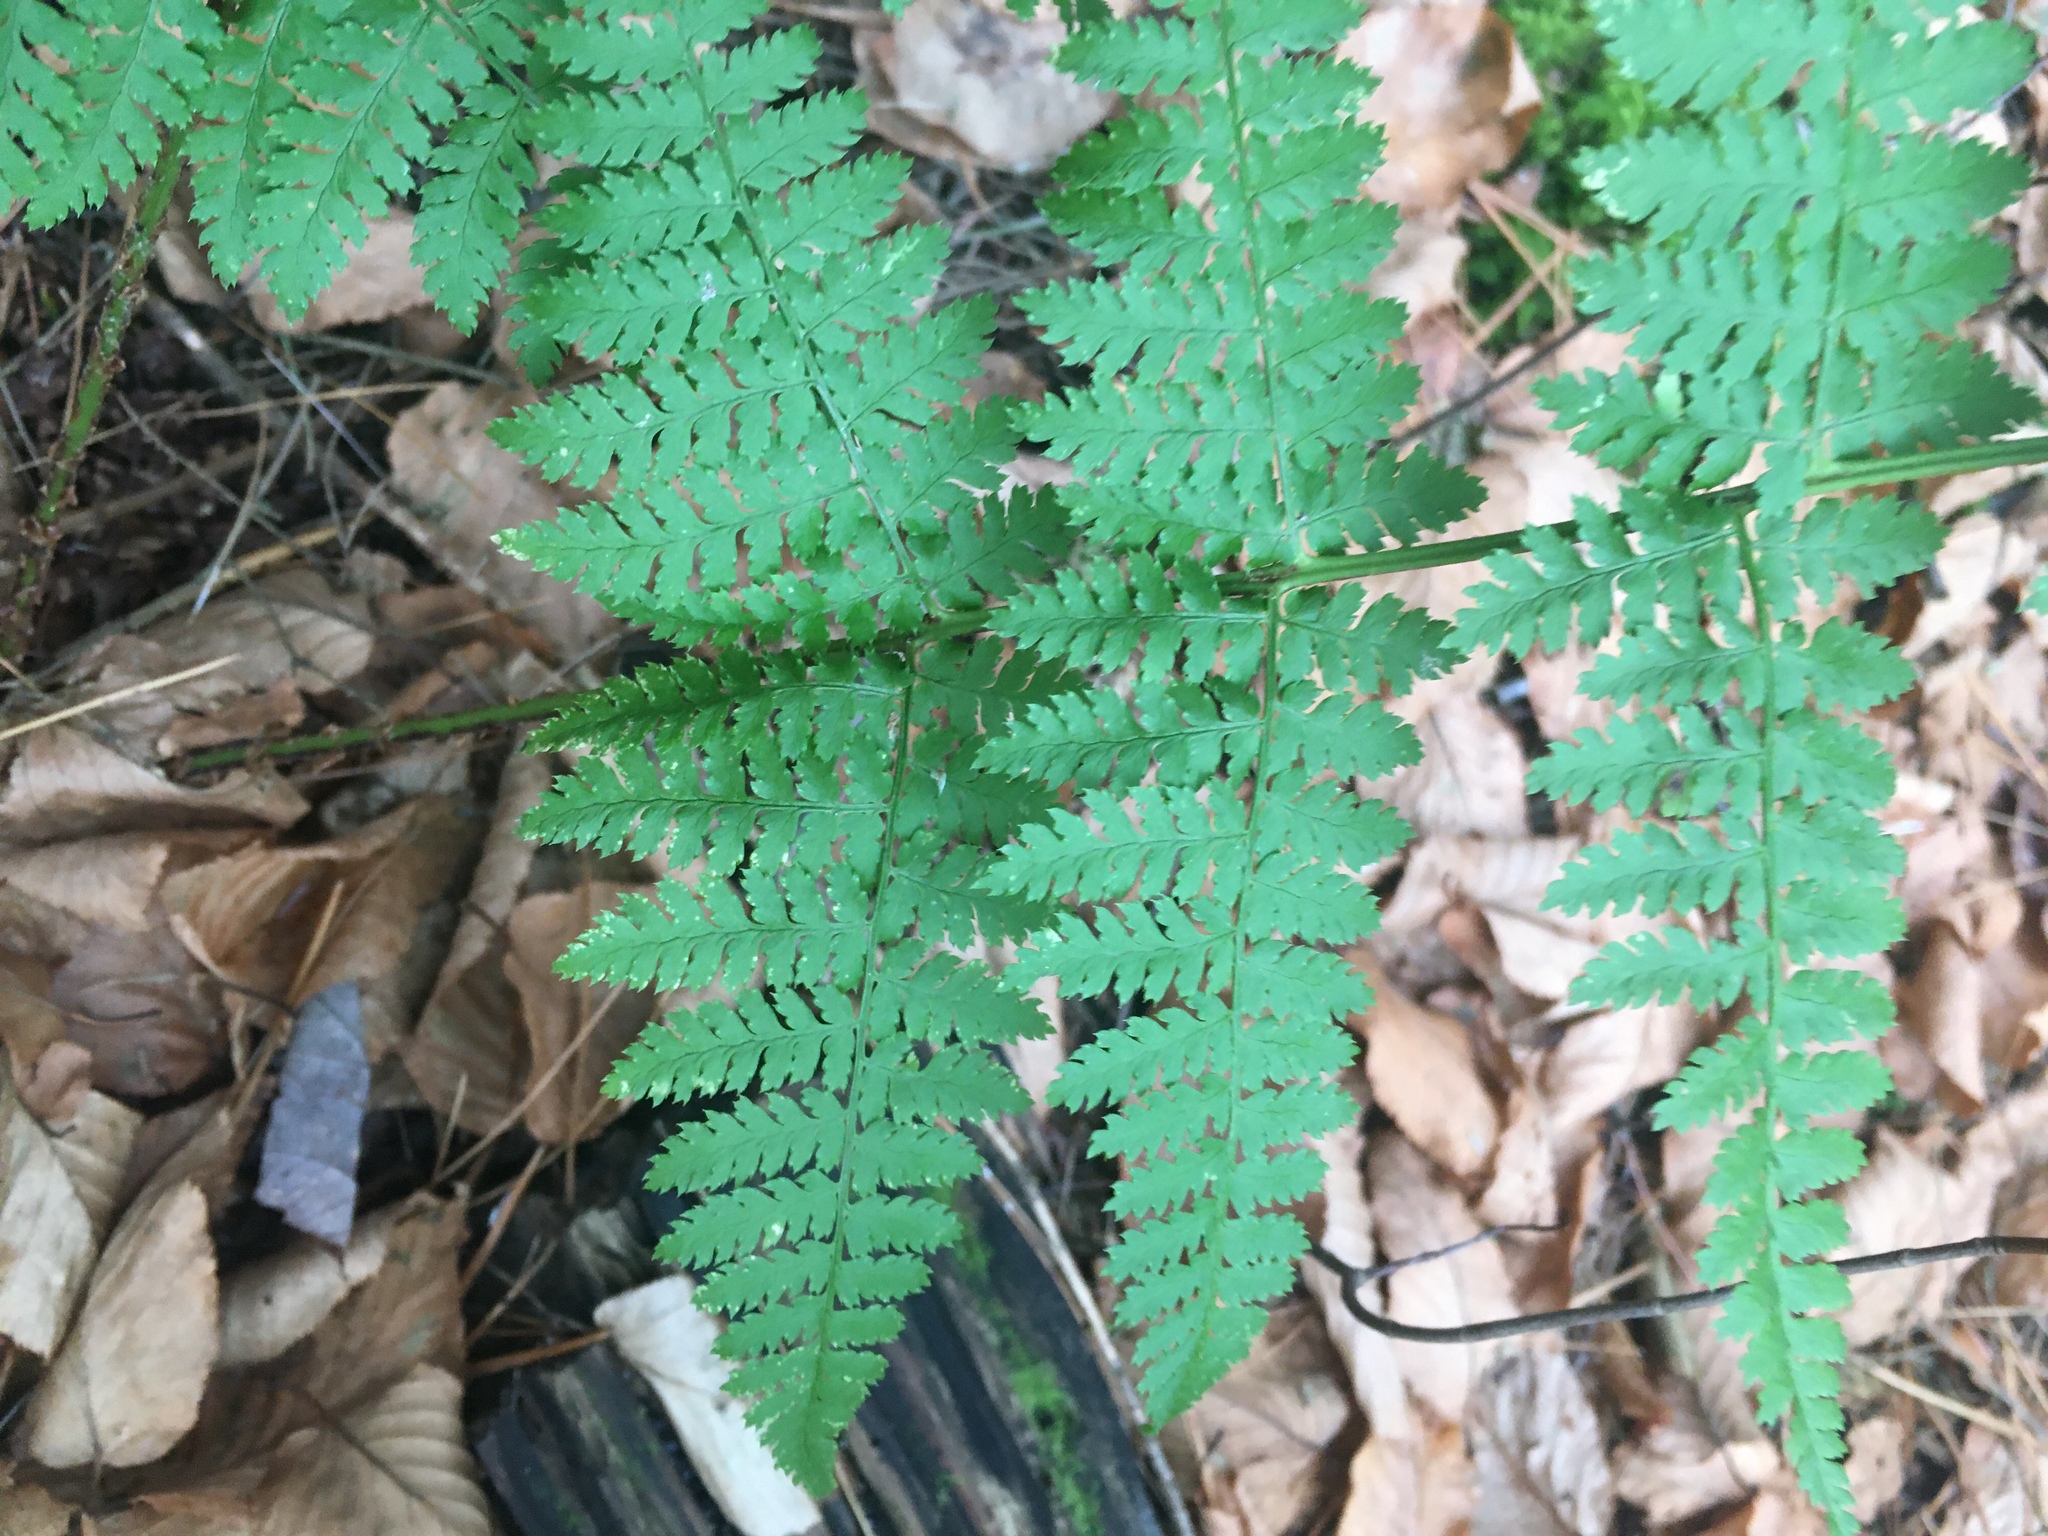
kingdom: Plantae
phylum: Tracheophyta
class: Polypodiopsida
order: Polypodiales
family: Dryopteridaceae
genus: Dryopteris
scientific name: Dryopteris intermedia
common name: Evergreen wood fern
